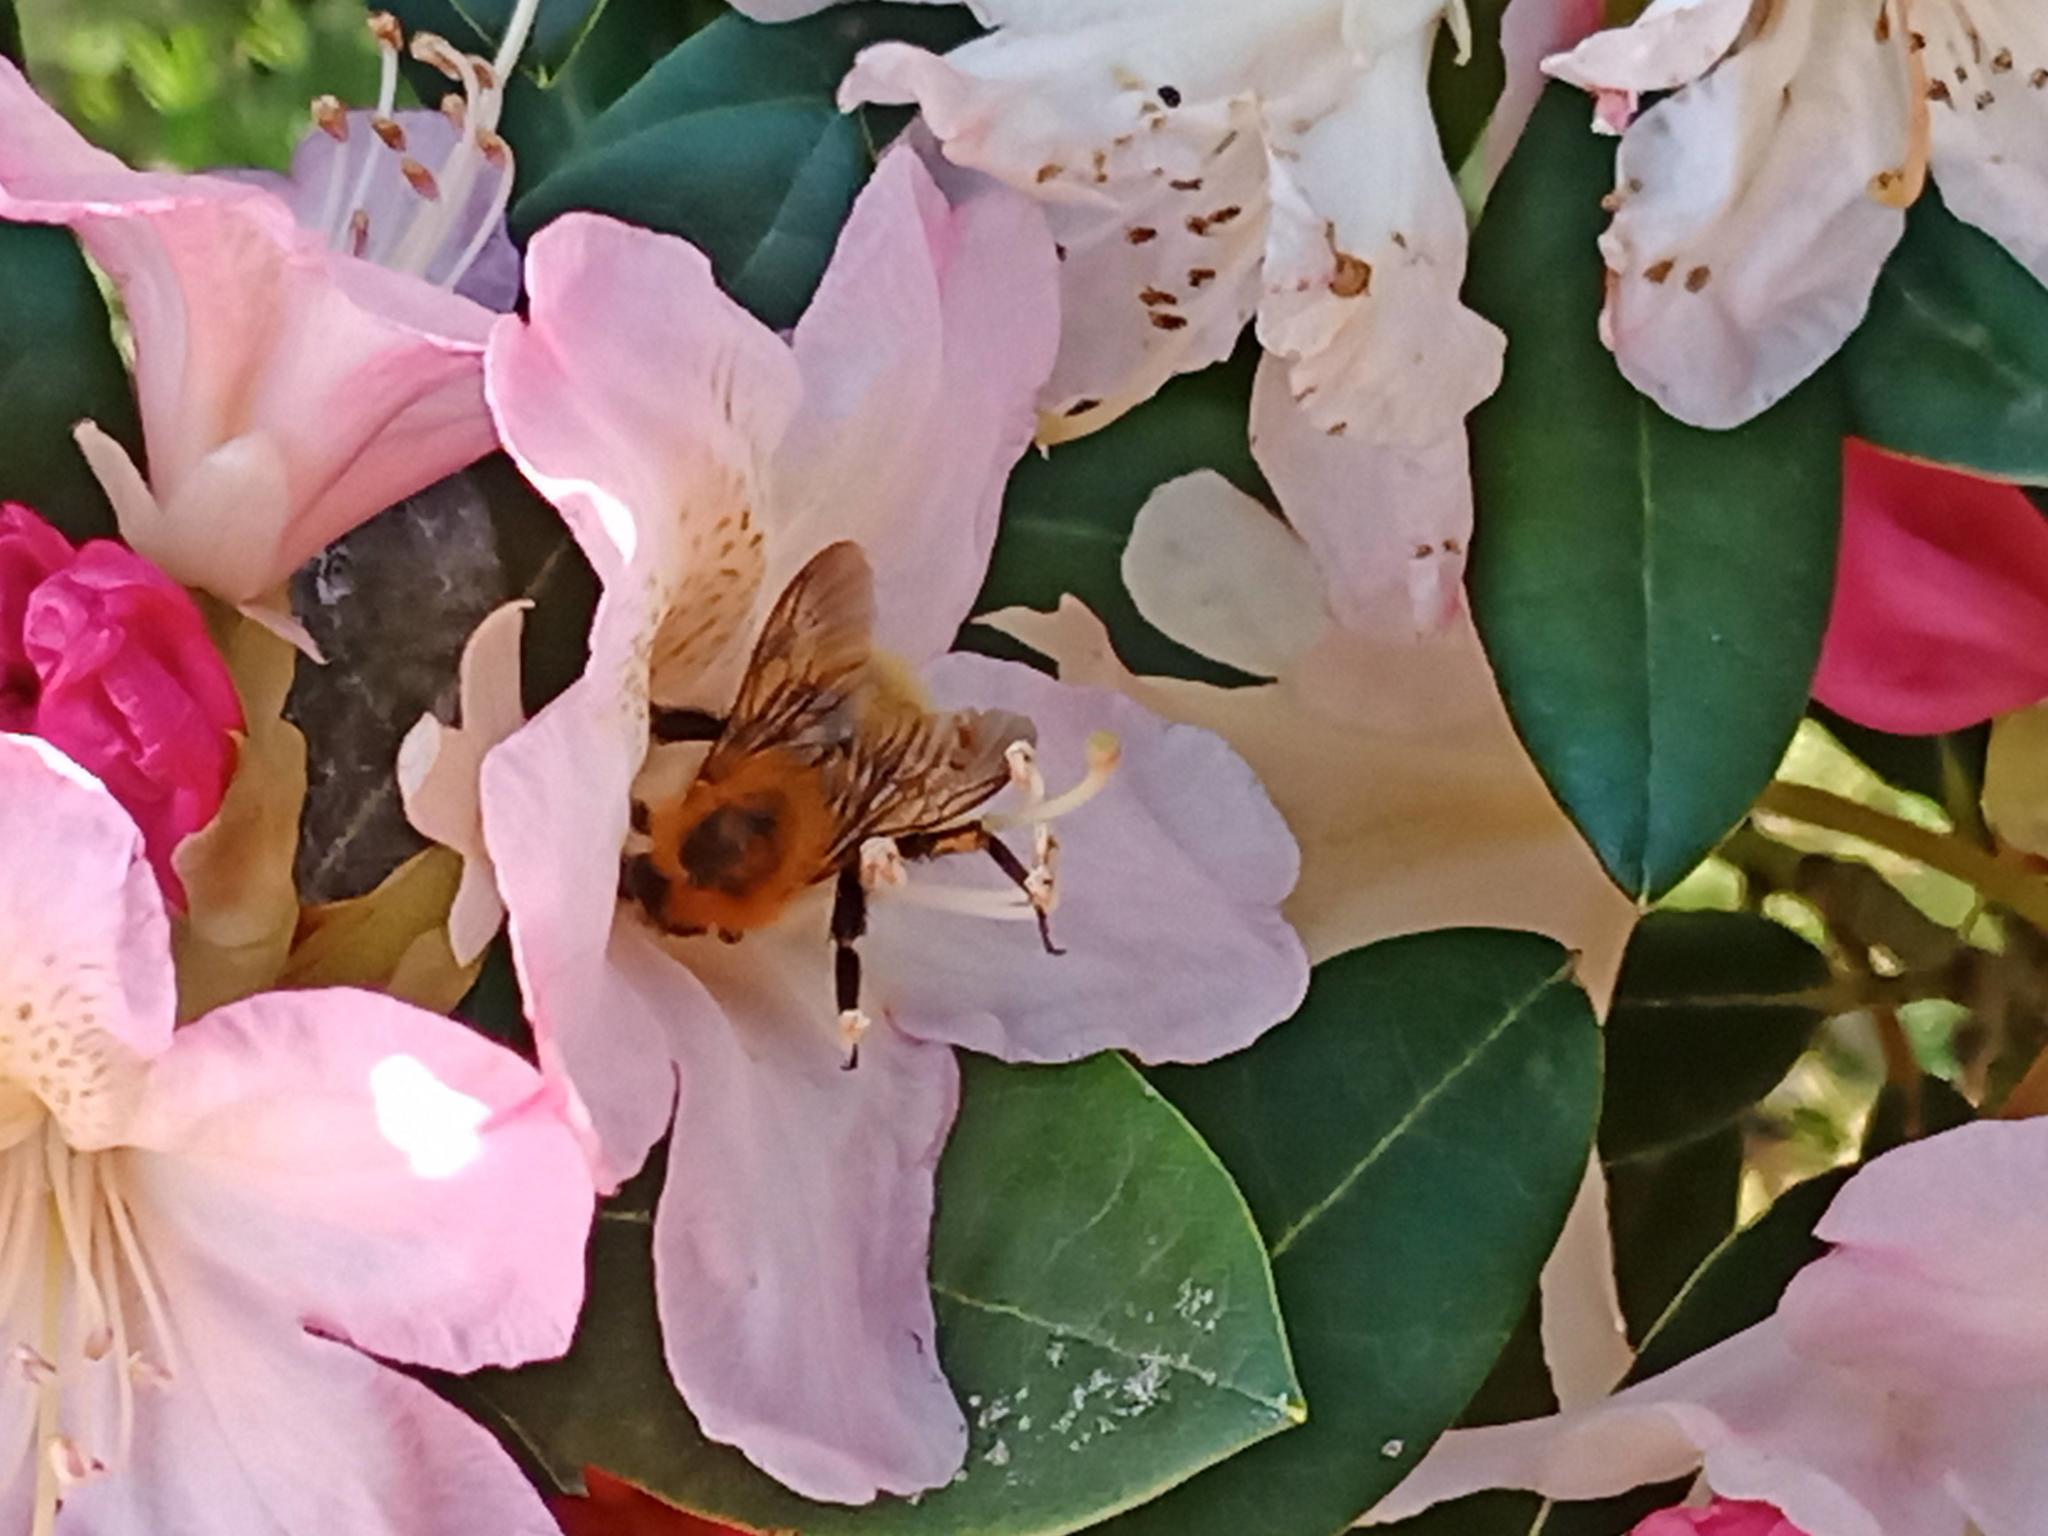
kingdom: Animalia
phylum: Arthropoda
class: Insecta
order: Hymenoptera
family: Apidae
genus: Bombus
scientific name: Bombus pascuorum
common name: Common carder bee
